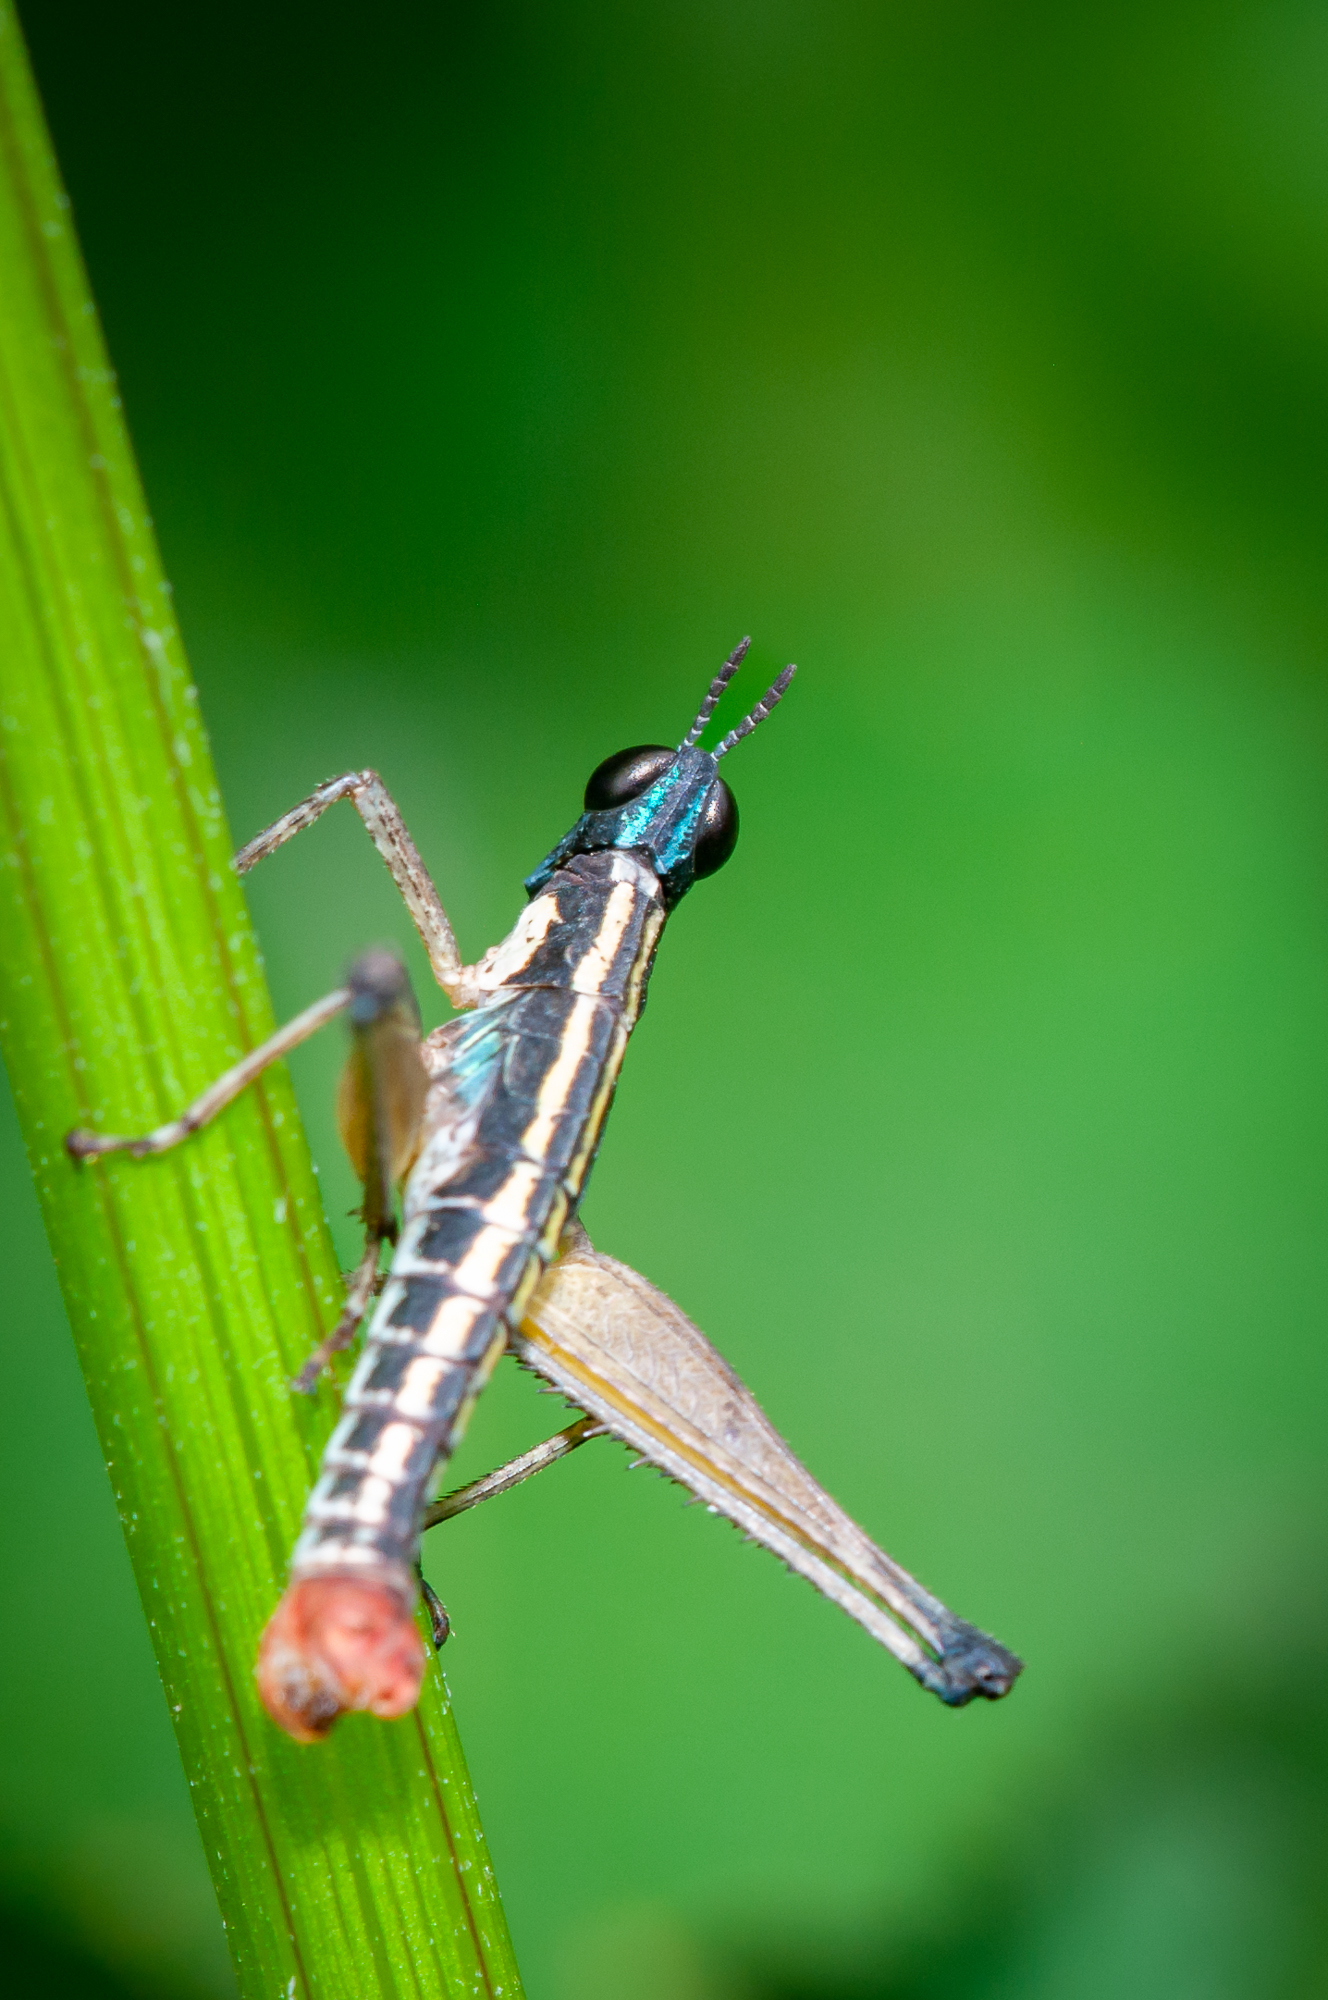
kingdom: Animalia
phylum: Arthropoda
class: Insecta
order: Orthoptera
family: Episactidae
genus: Episactus
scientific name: Episactus tristani
